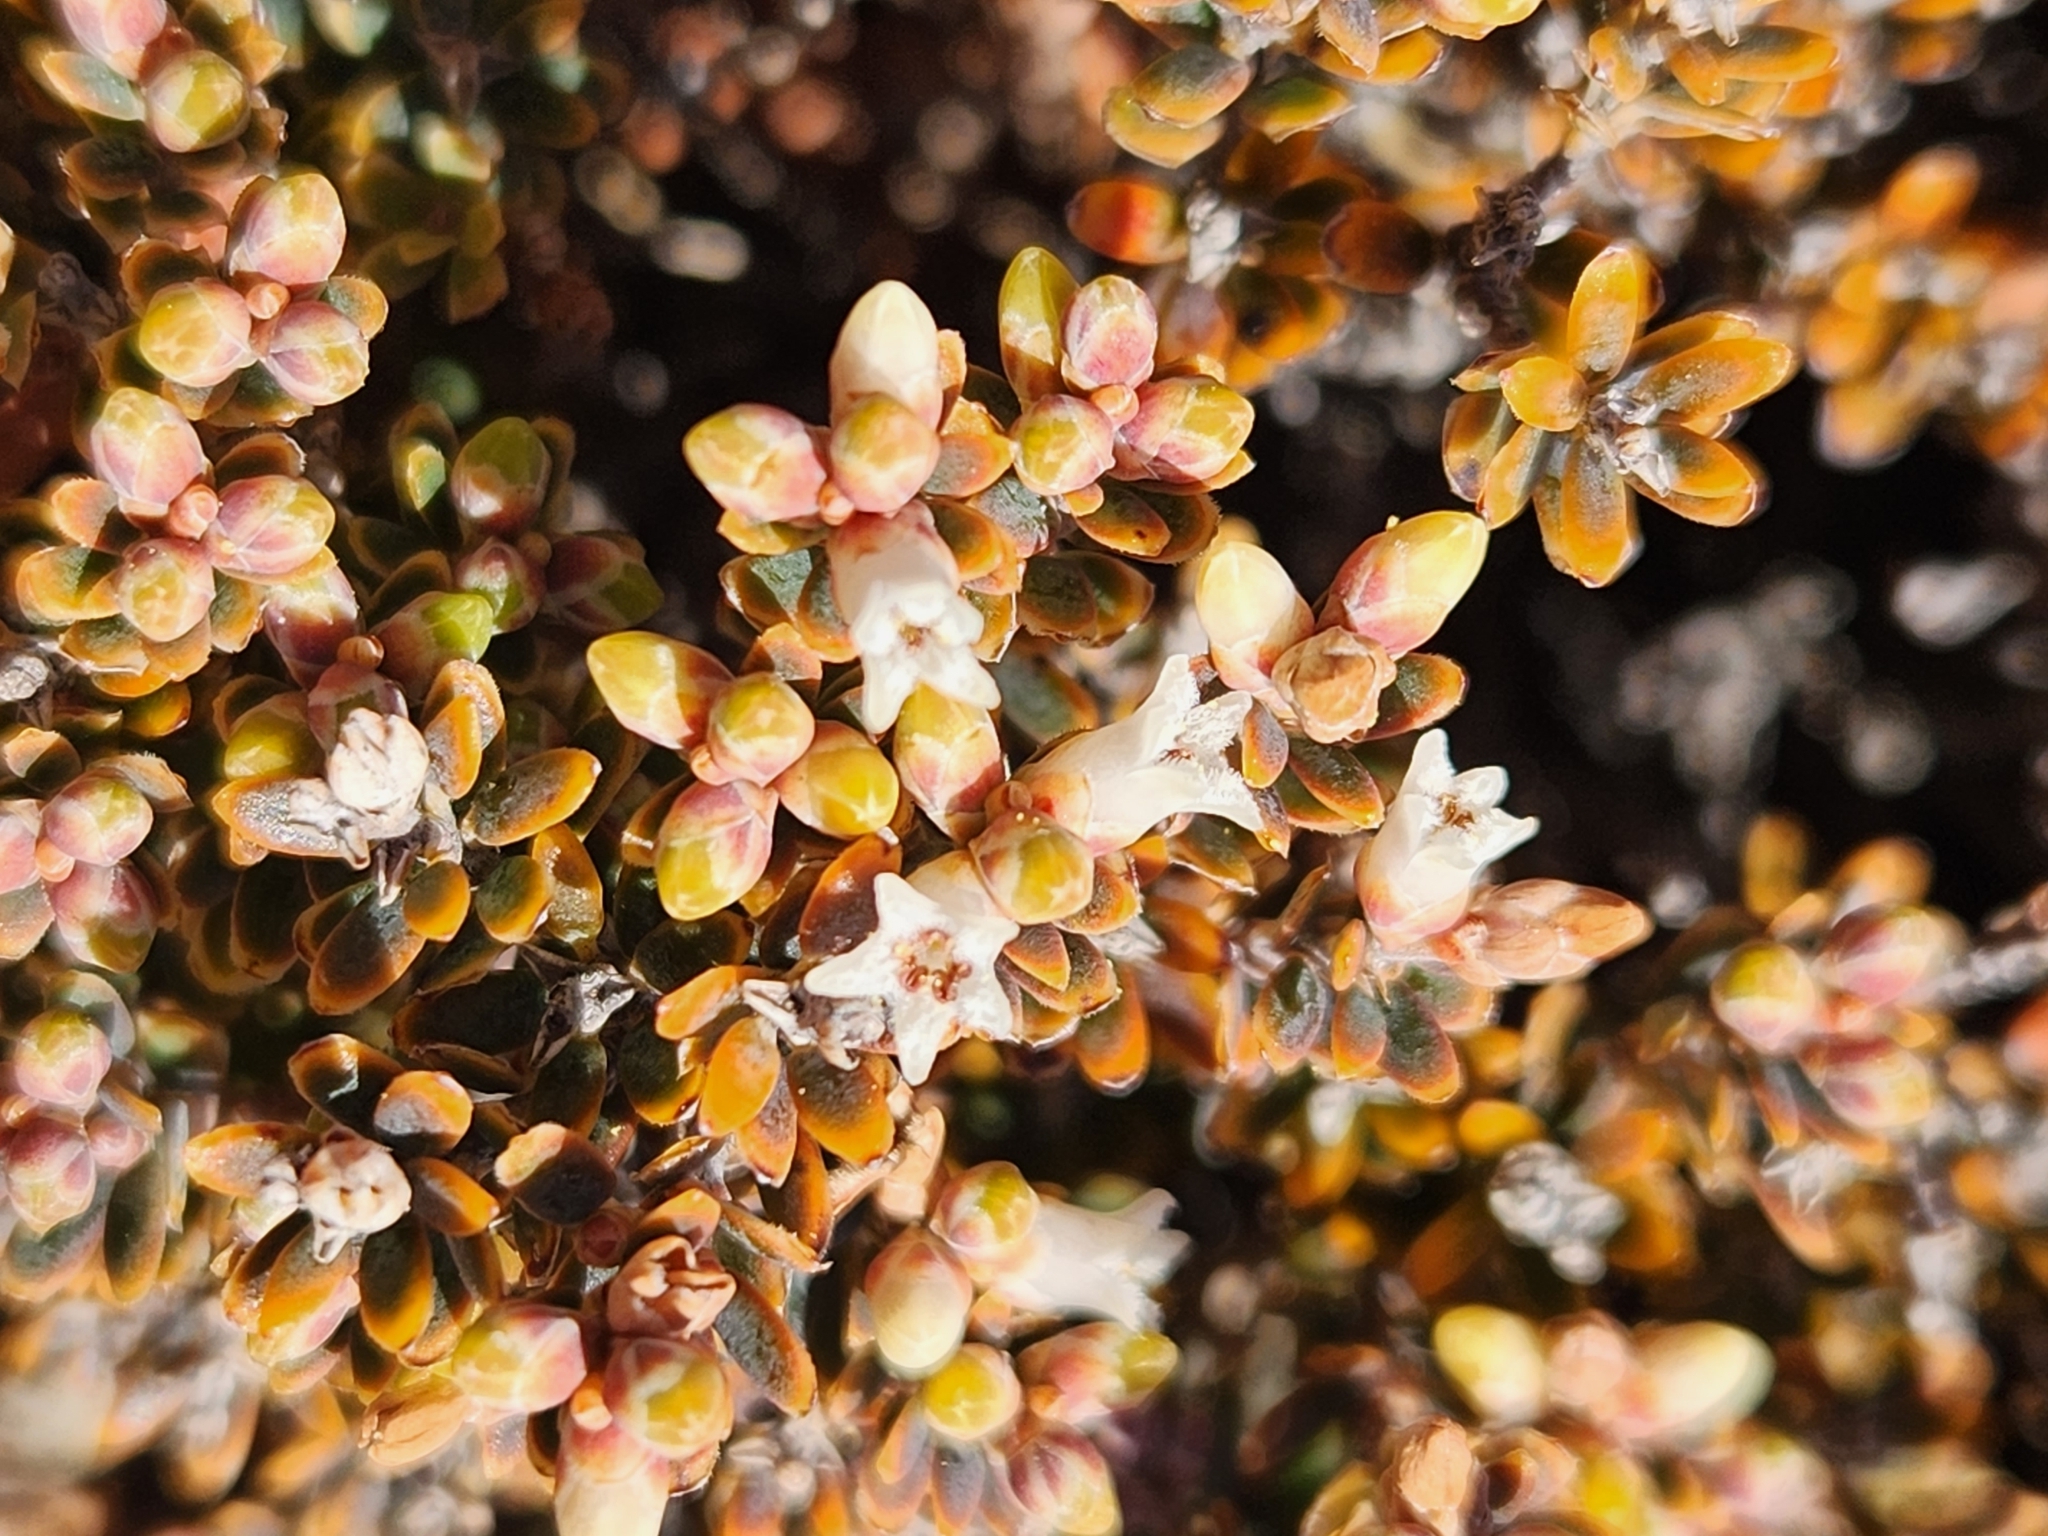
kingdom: Plantae
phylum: Tracheophyta
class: Magnoliopsida
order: Ericales
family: Ericaceae
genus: Acrothamnus
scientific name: Acrothamnus colensoi
